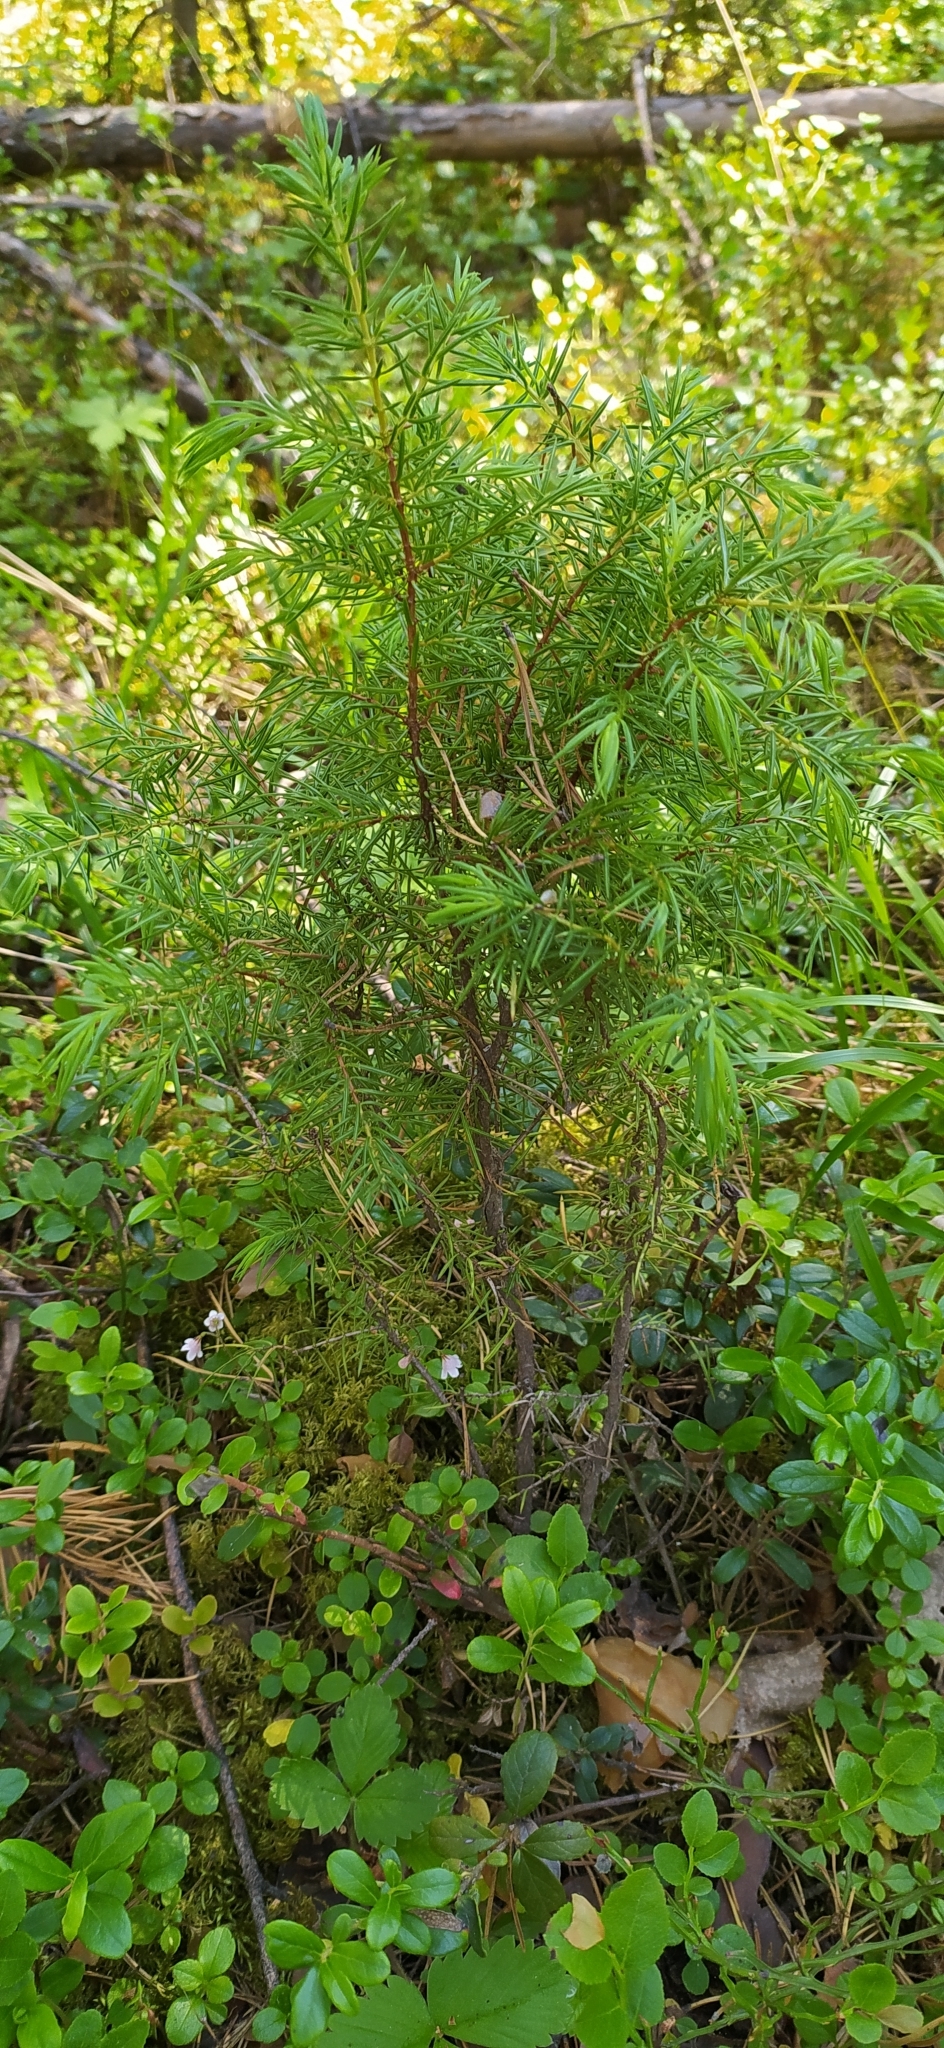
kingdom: Plantae
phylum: Tracheophyta
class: Pinopsida
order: Pinales
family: Cupressaceae
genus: Juniperus
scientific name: Juniperus communis
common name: Common juniper
